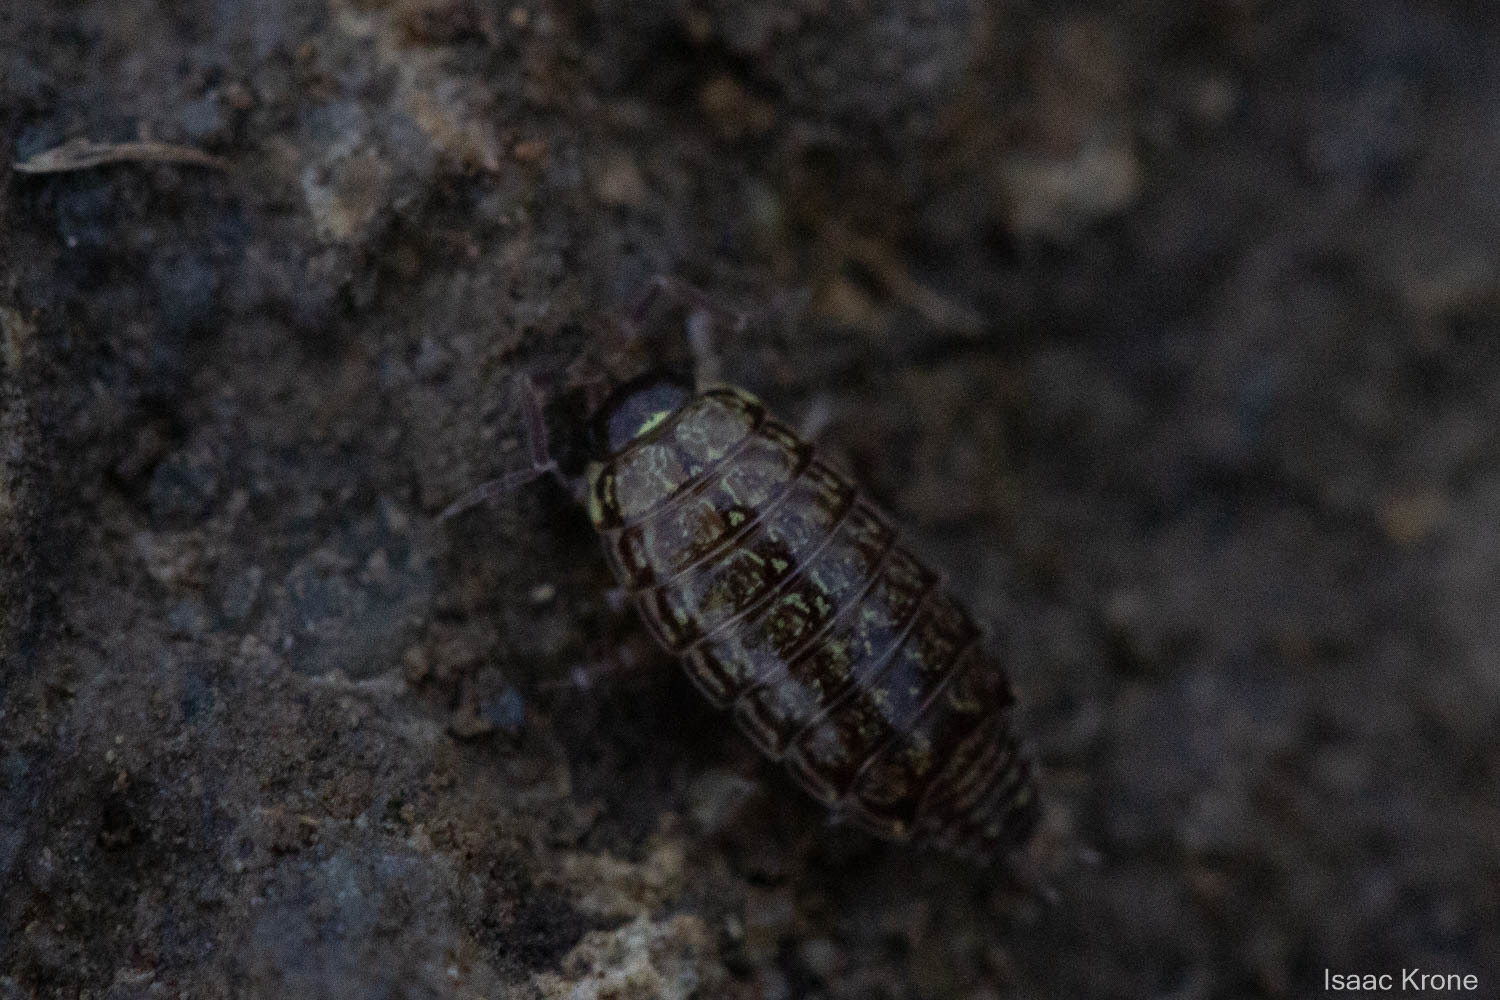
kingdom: Animalia
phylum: Arthropoda
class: Malacostraca
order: Isopoda
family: Philosciidae
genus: Philoscia
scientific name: Philoscia muscorum
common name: Common striped woodlouse
